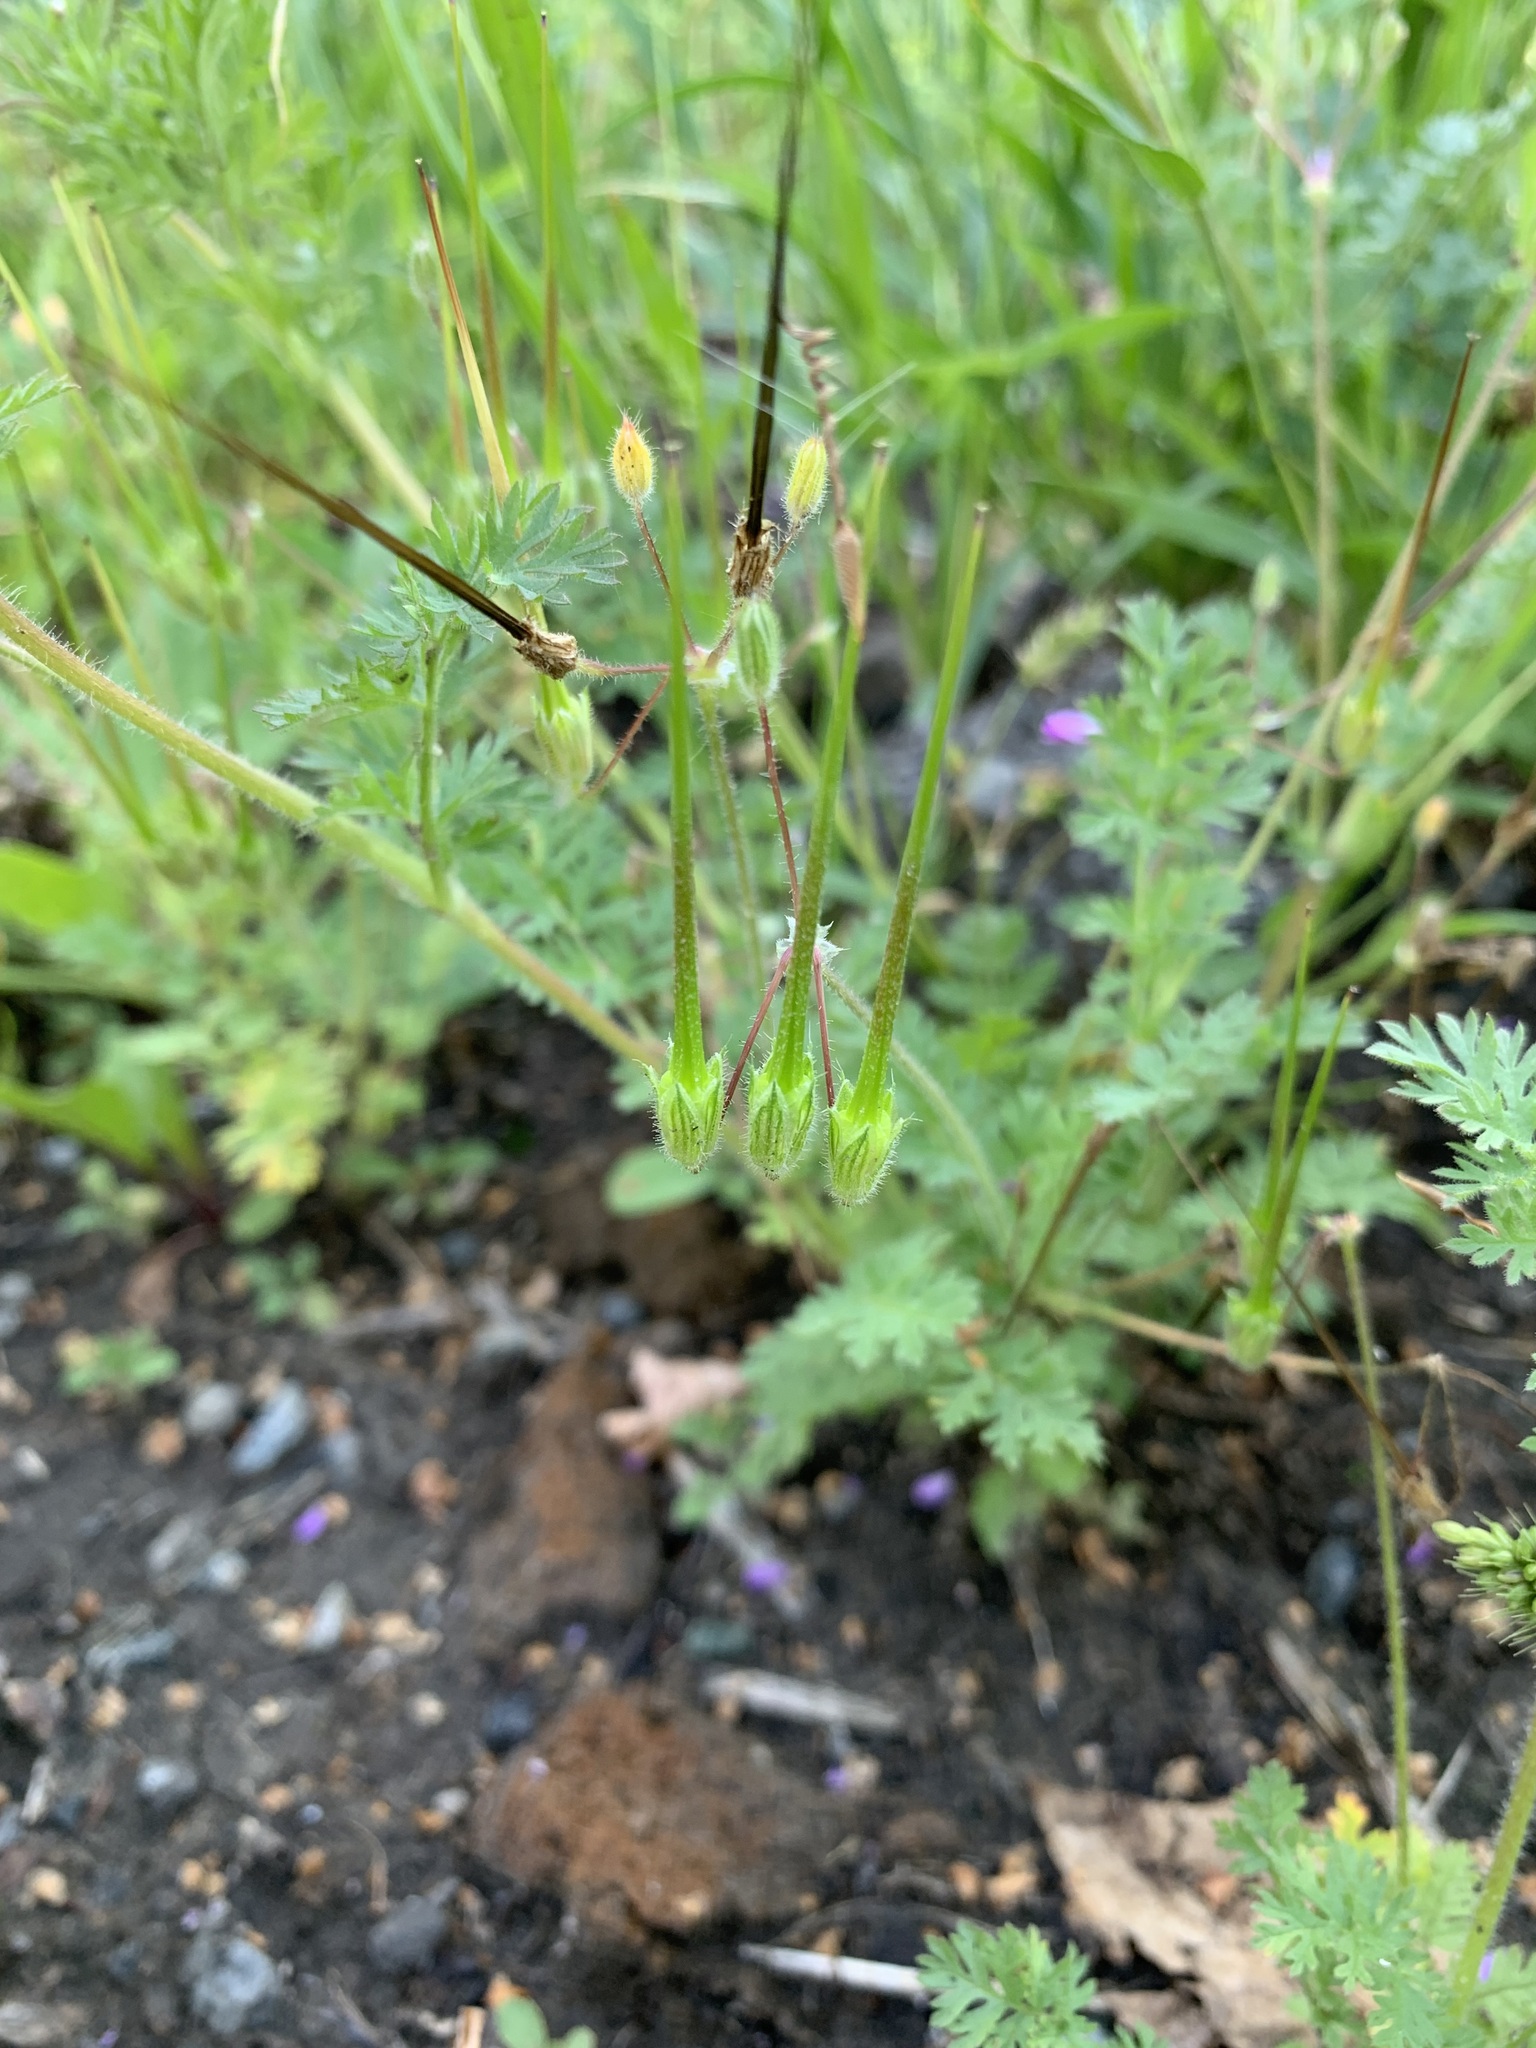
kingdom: Plantae
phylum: Tracheophyta
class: Magnoliopsida
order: Geraniales
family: Geraniaceae
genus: Erodium
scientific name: Erodium cicutarium
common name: Common stork's-bill
